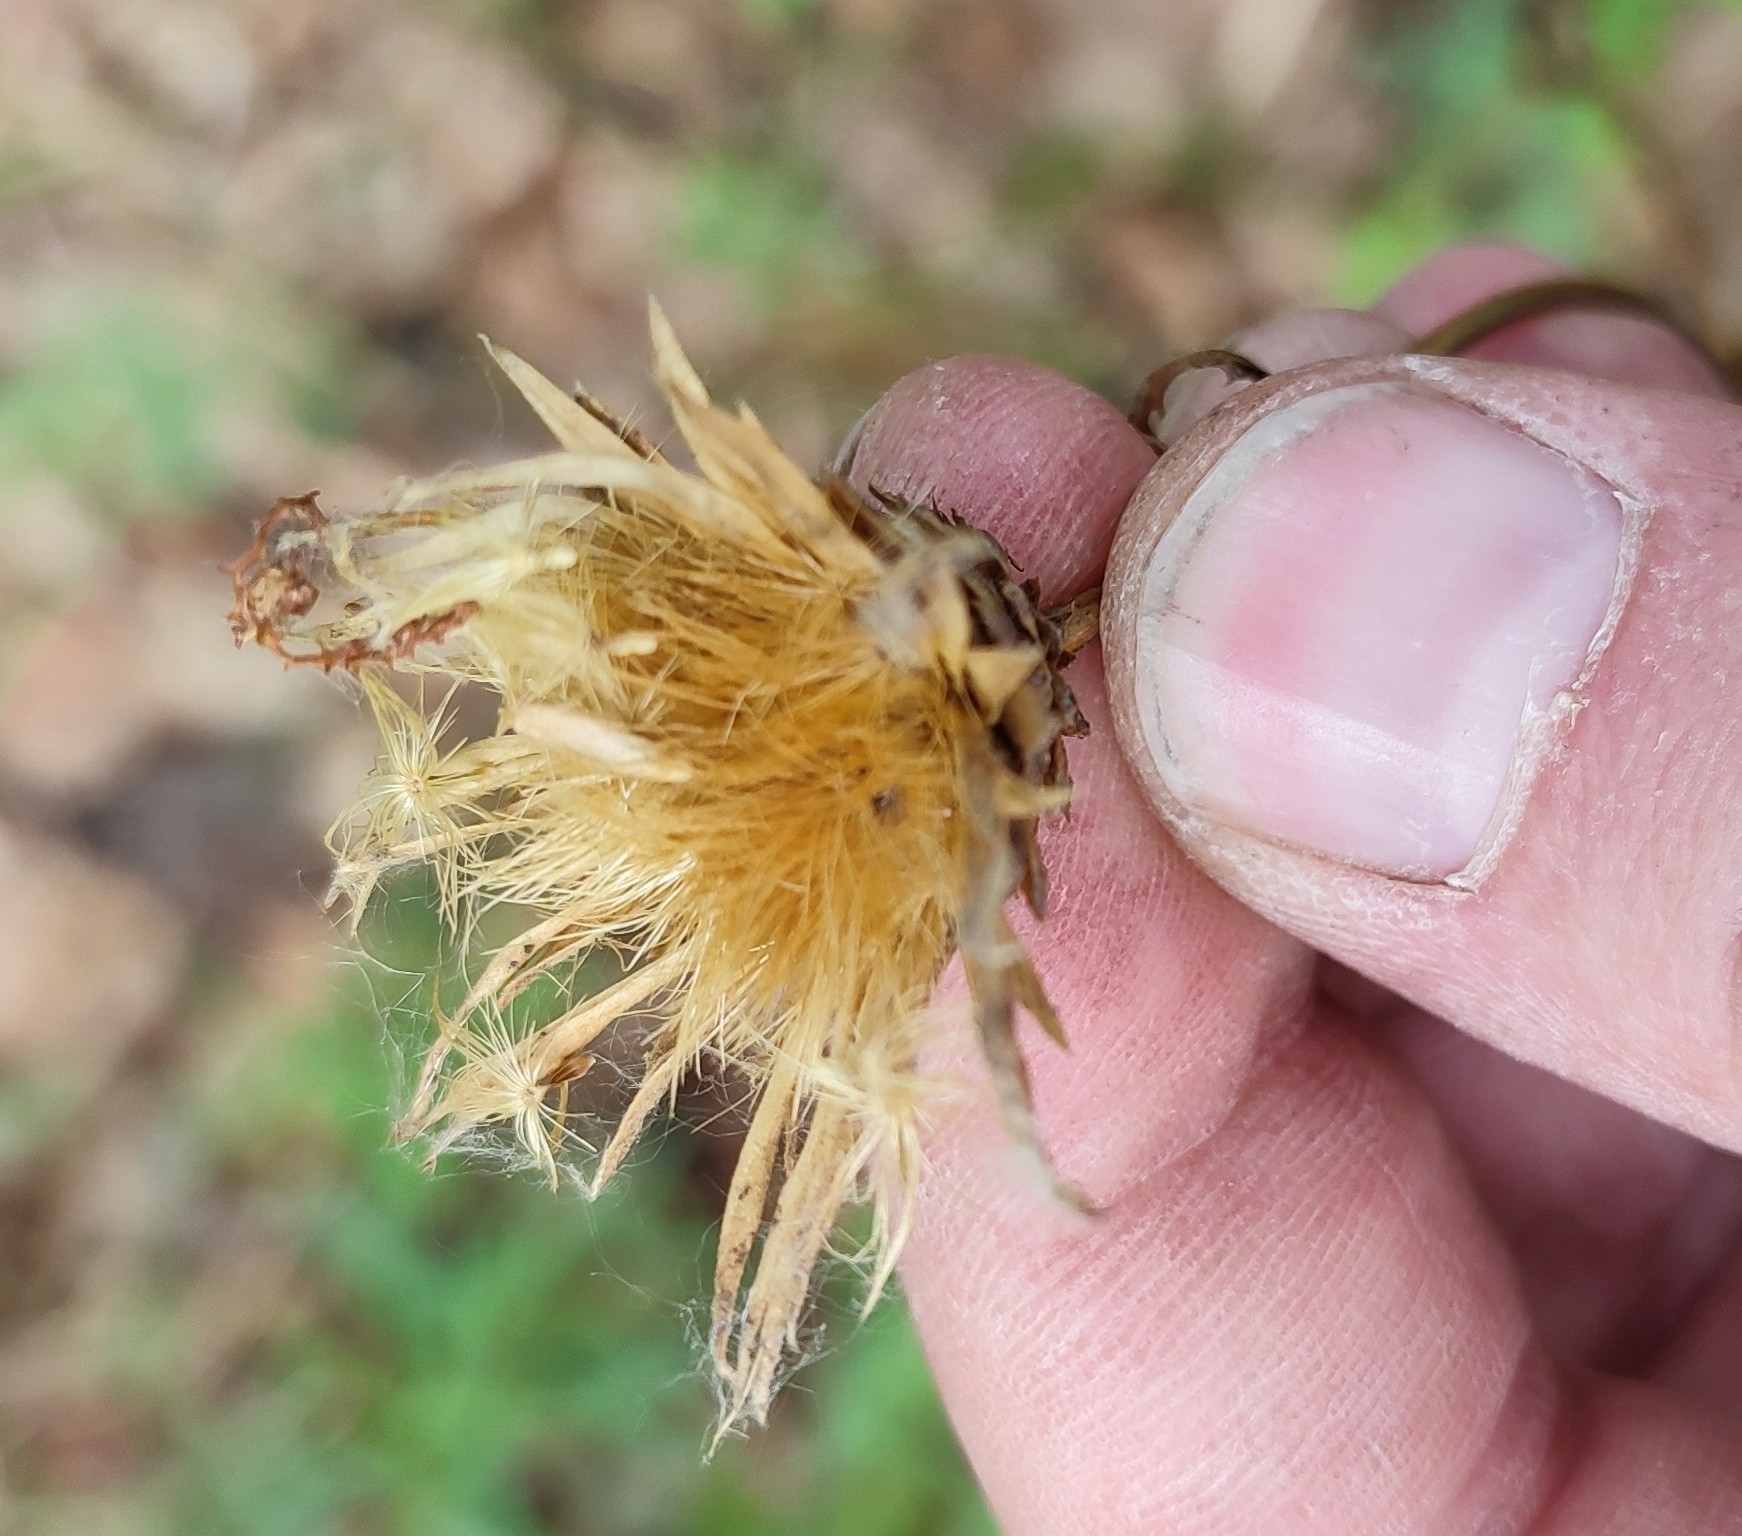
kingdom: Plantae
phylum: Tracheophyta
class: Magnoliopsida
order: Asterales
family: Asteraceae
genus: Serratula
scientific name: Serratula coronata
